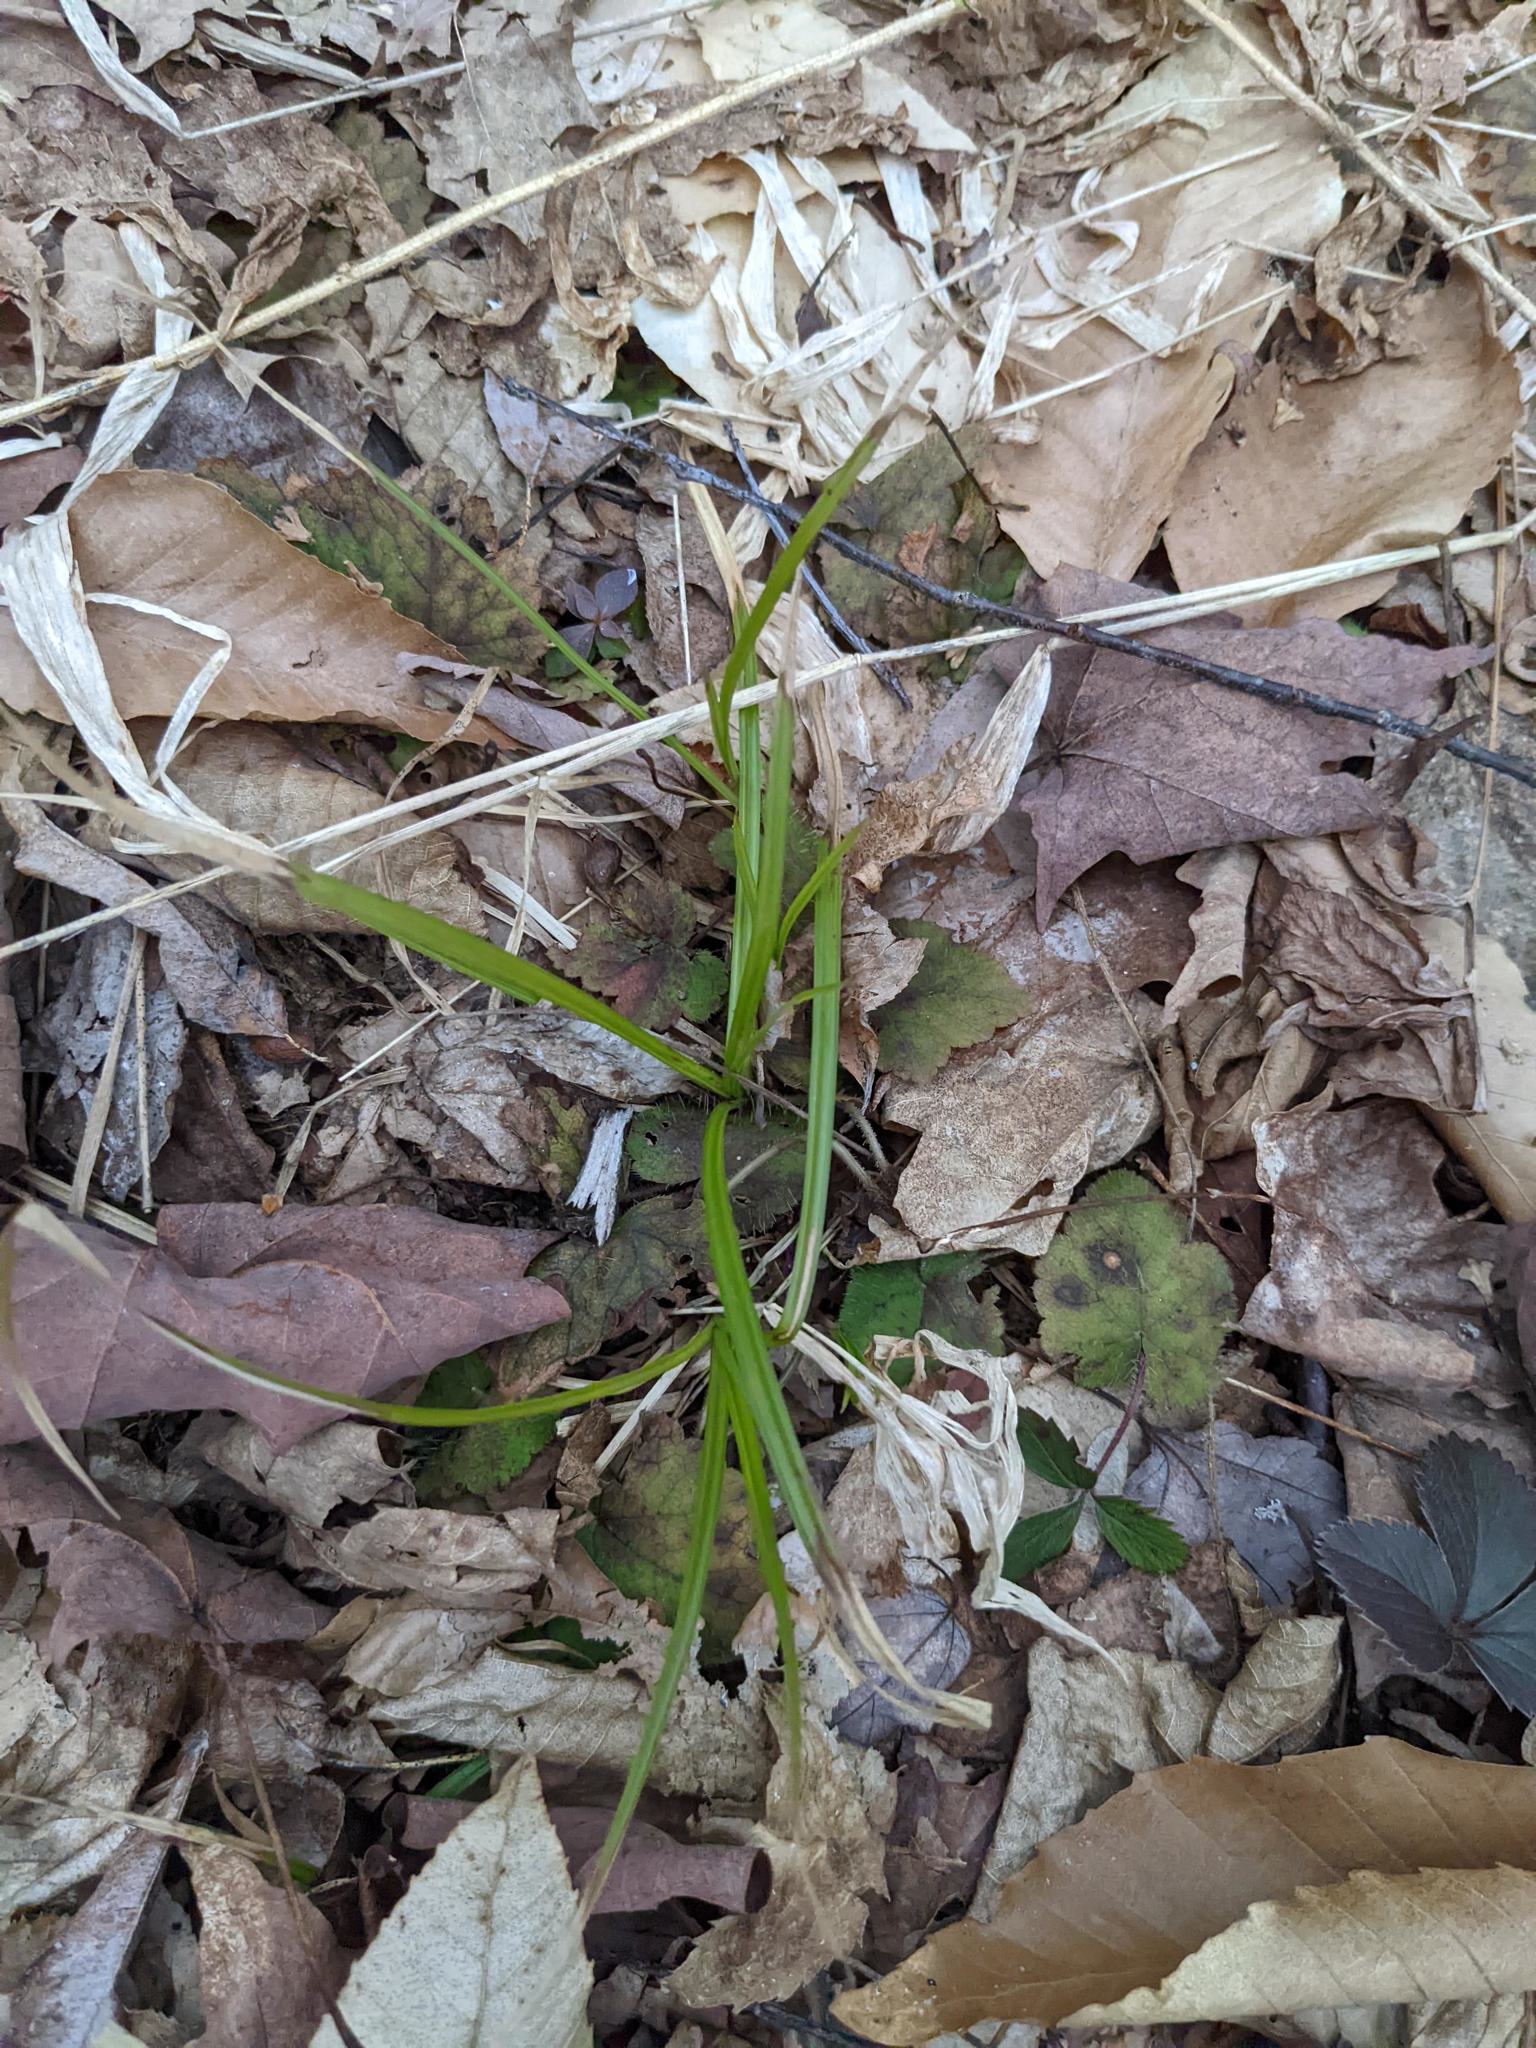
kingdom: Plantae
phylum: Tracheophyta
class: Magnoliopsida
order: Saxifragales
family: Saxifragaceae
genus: Tiarella
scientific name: Tiarella stolonifera
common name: Stoloniferous foamflower
